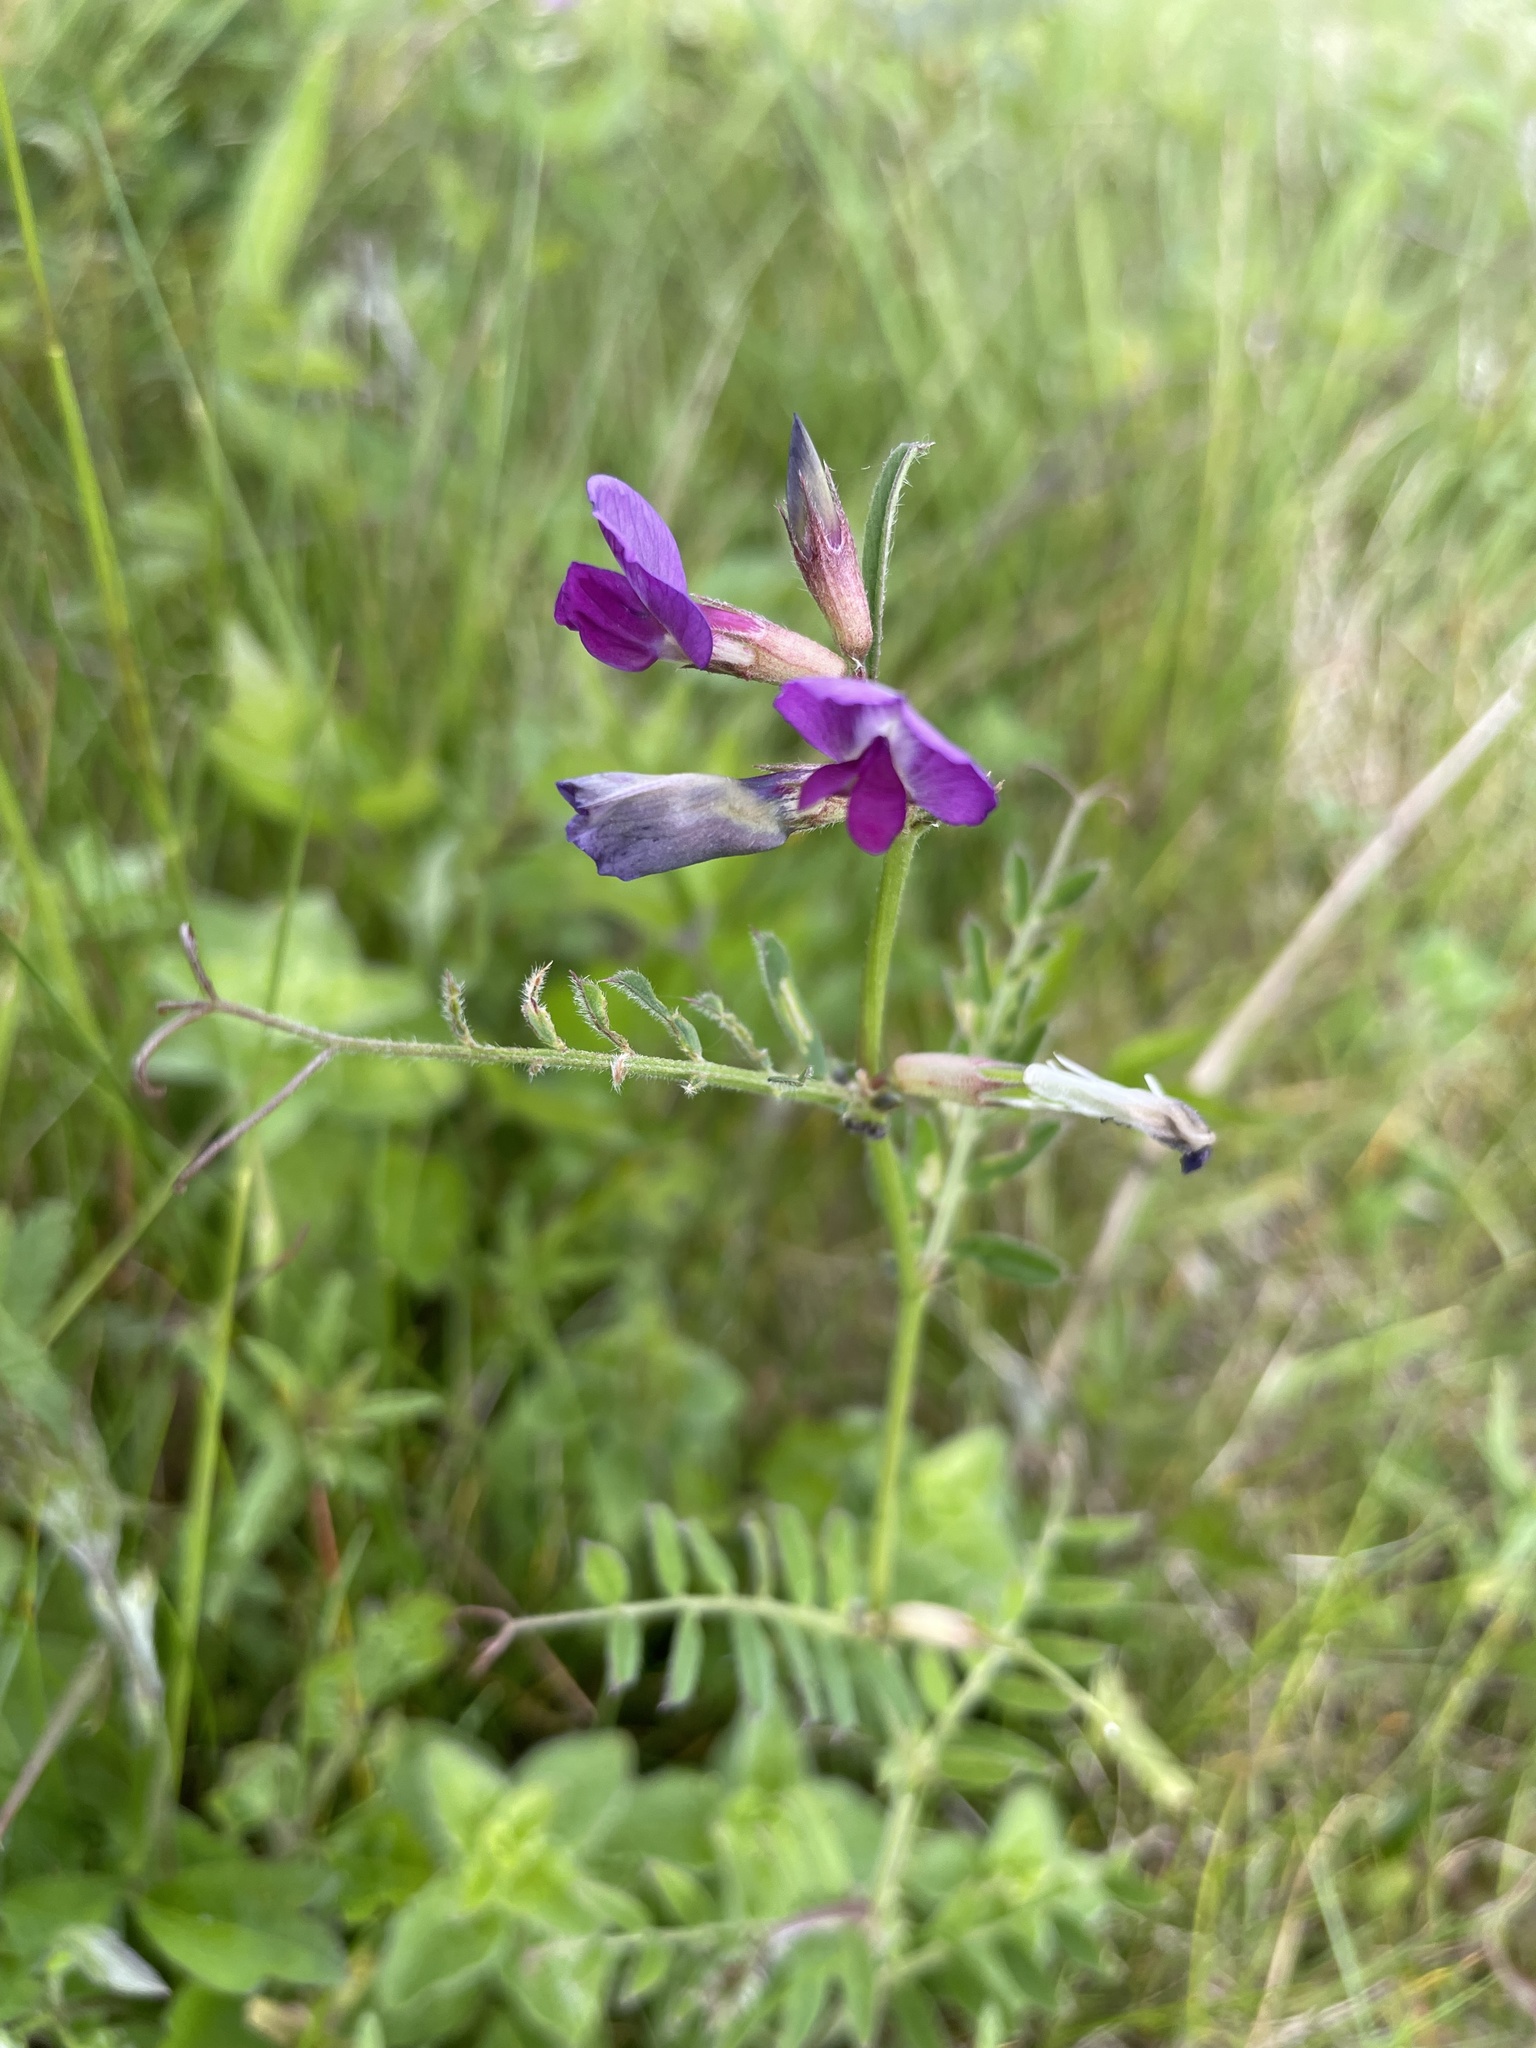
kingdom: Plantae
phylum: Tracheophyta
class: Magnoliopsida
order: Fabales
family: Fabaceae
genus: Vicia
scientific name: Vicia sativa
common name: Garden vetch
